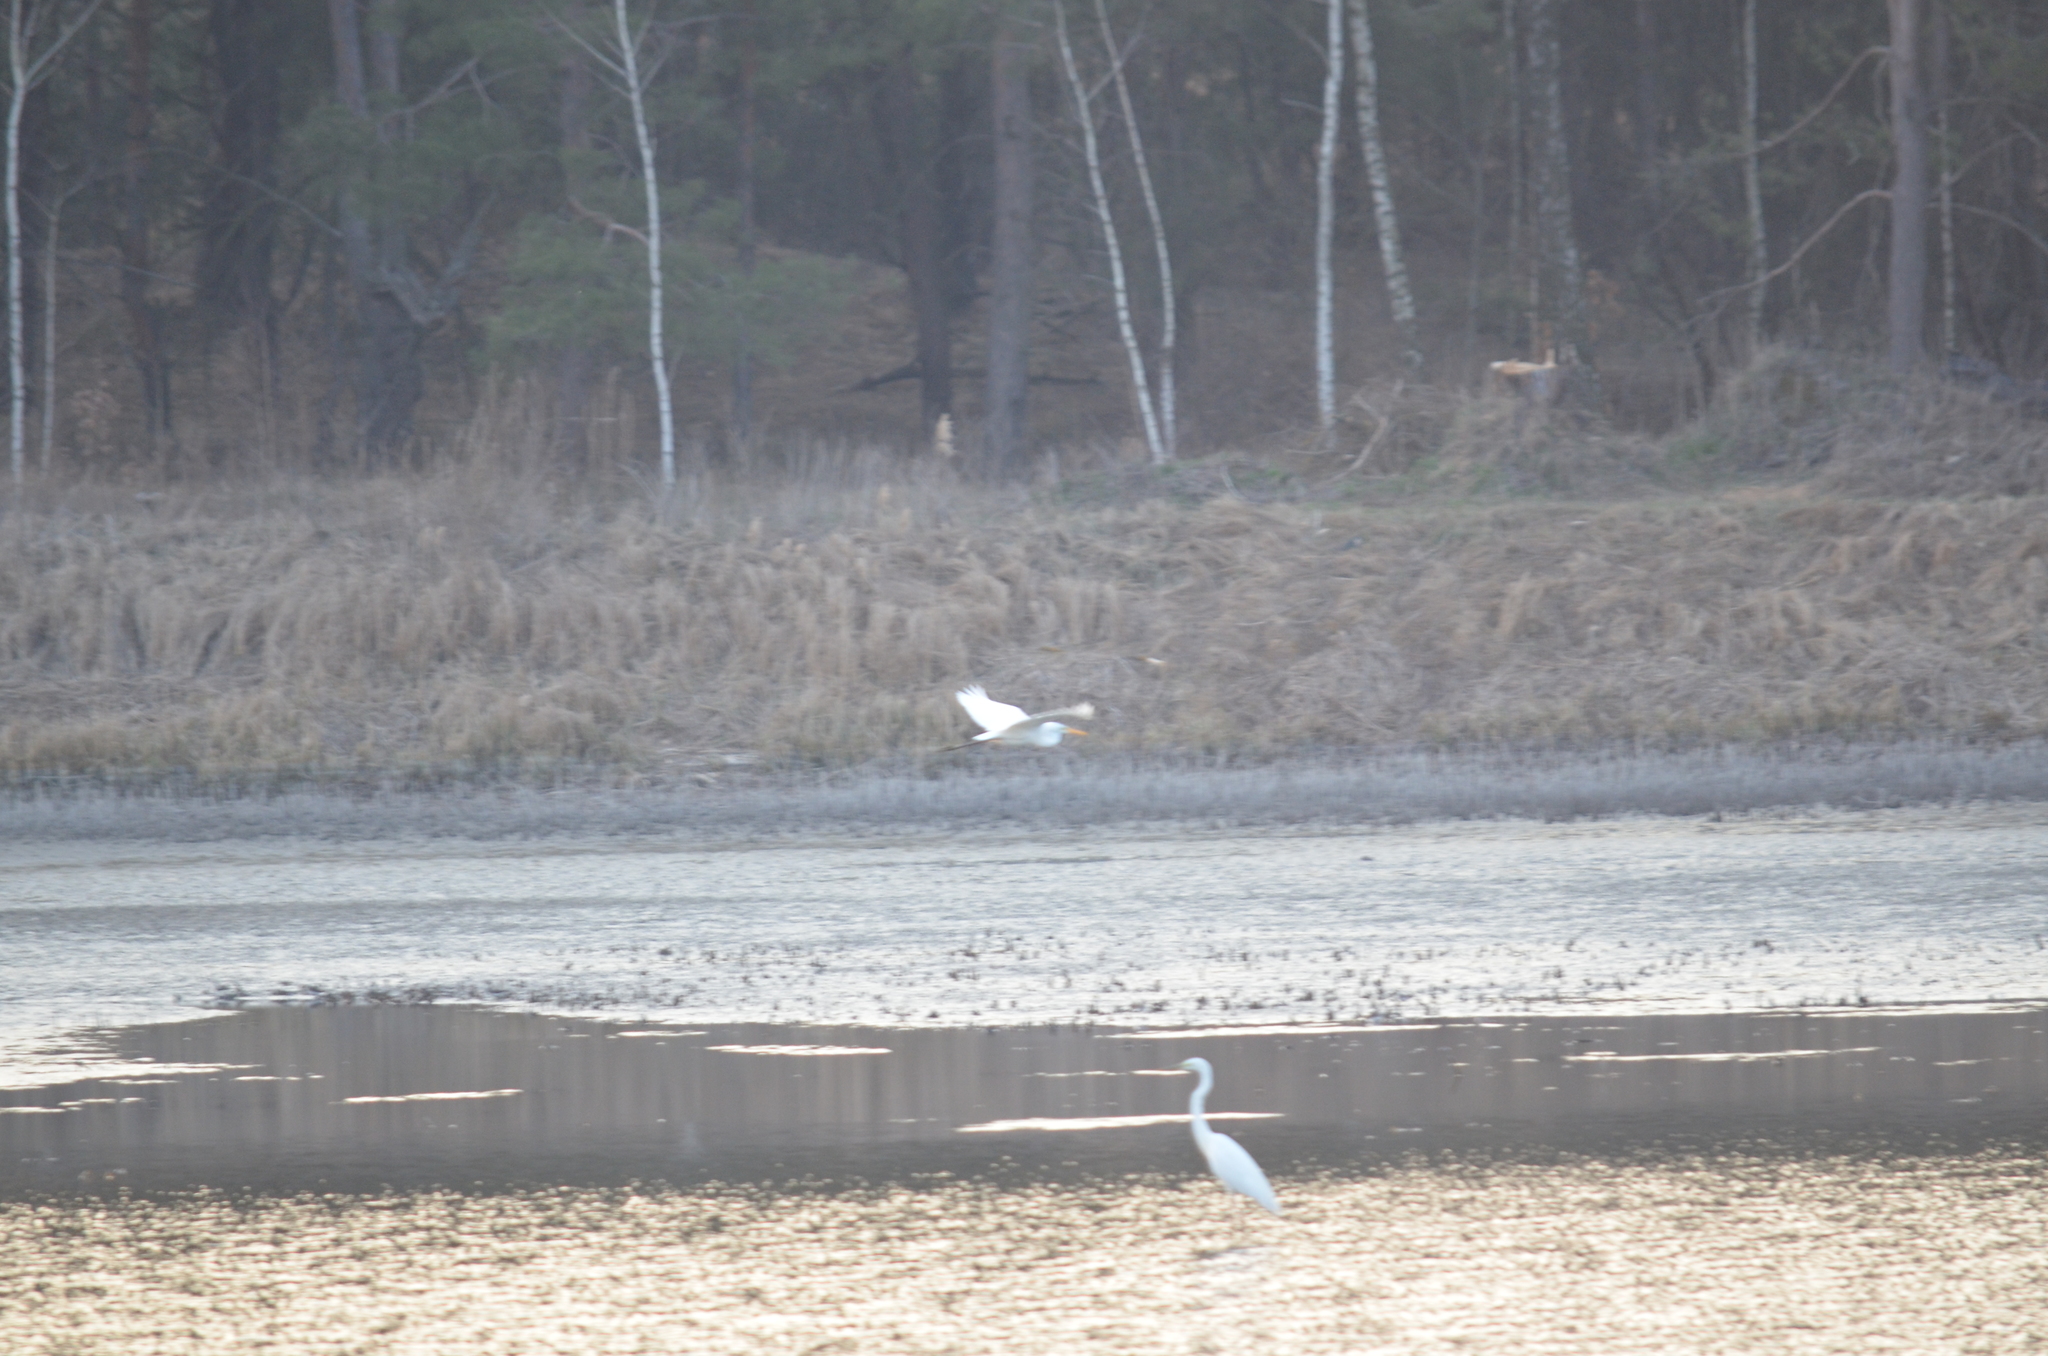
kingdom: Animalia
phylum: Chordata
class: Aves
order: Pelecaniformes
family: Ardeidae
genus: Ardea
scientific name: Ardea alba
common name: Great egret
